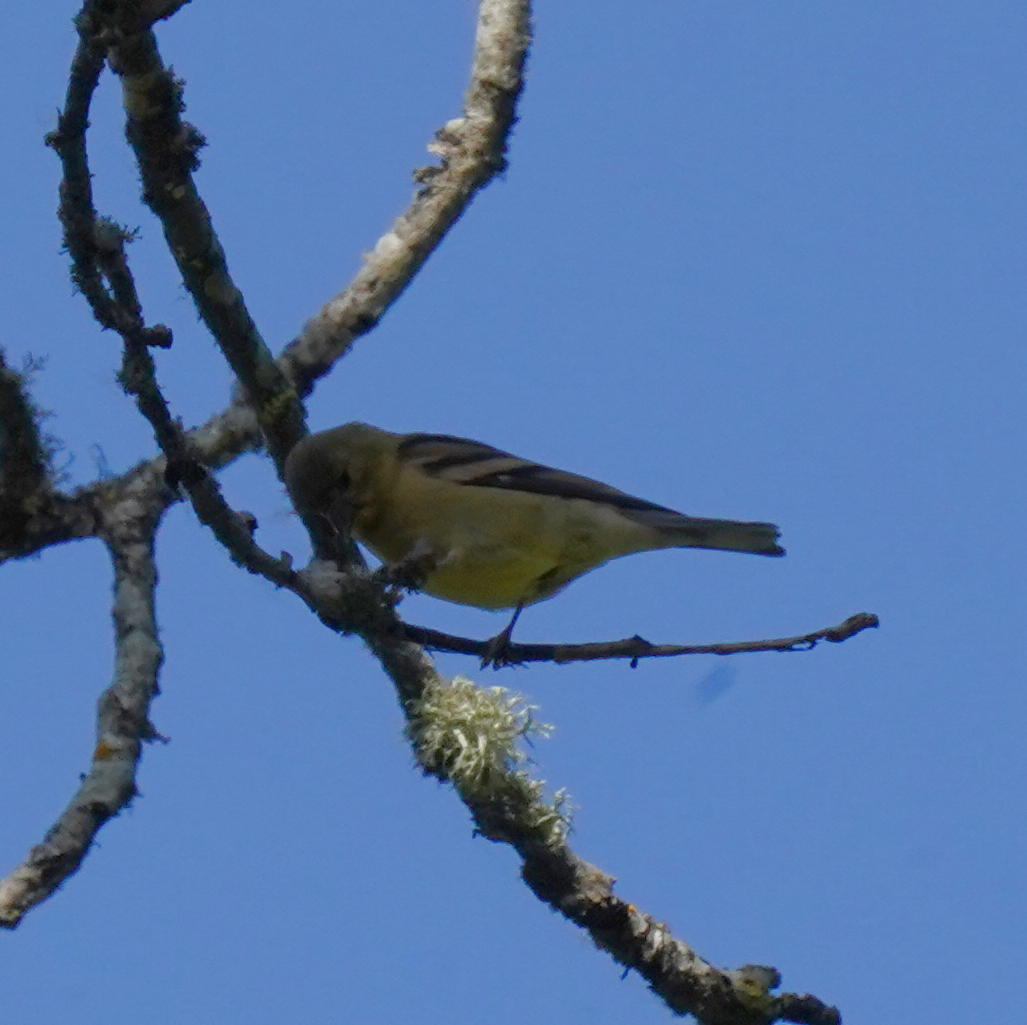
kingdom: Animalia
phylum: Chordata
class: Aves
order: Passeriformes
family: Fringillidae
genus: Spinus
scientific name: Spinus psaltria
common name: Lesser goldfinch
